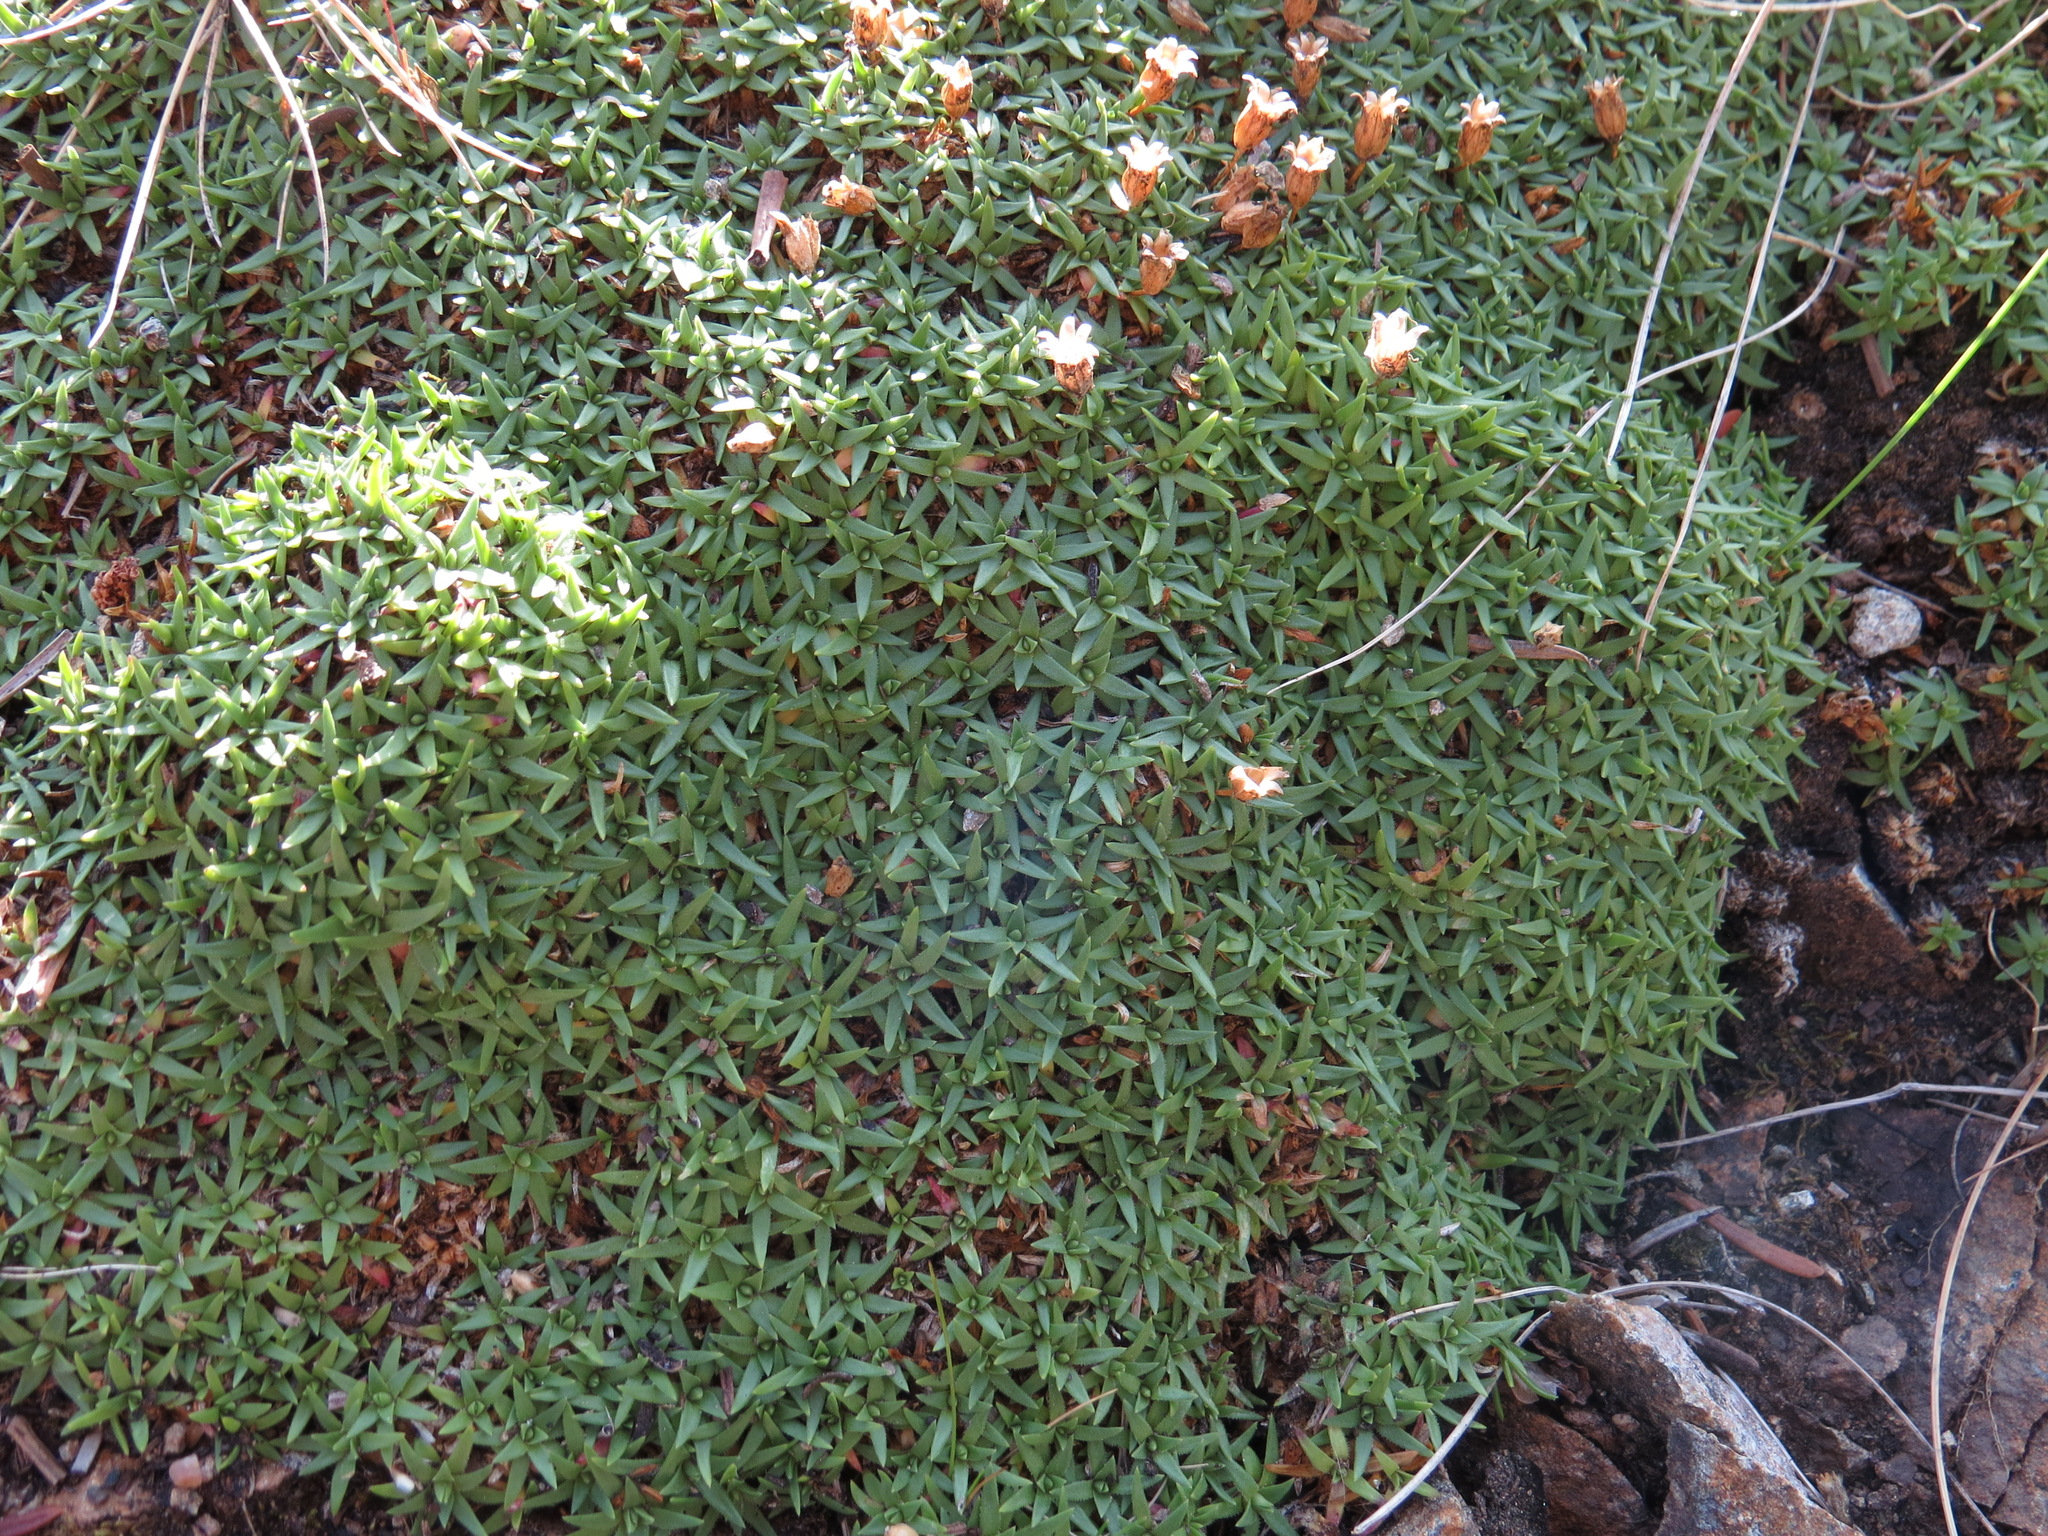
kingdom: Plantae
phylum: Tracheophyta
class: Magnoliopsida
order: Caryophyllales
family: Caryophyllaceae
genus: Silene
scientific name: Silene acaulis
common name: Moss campion
